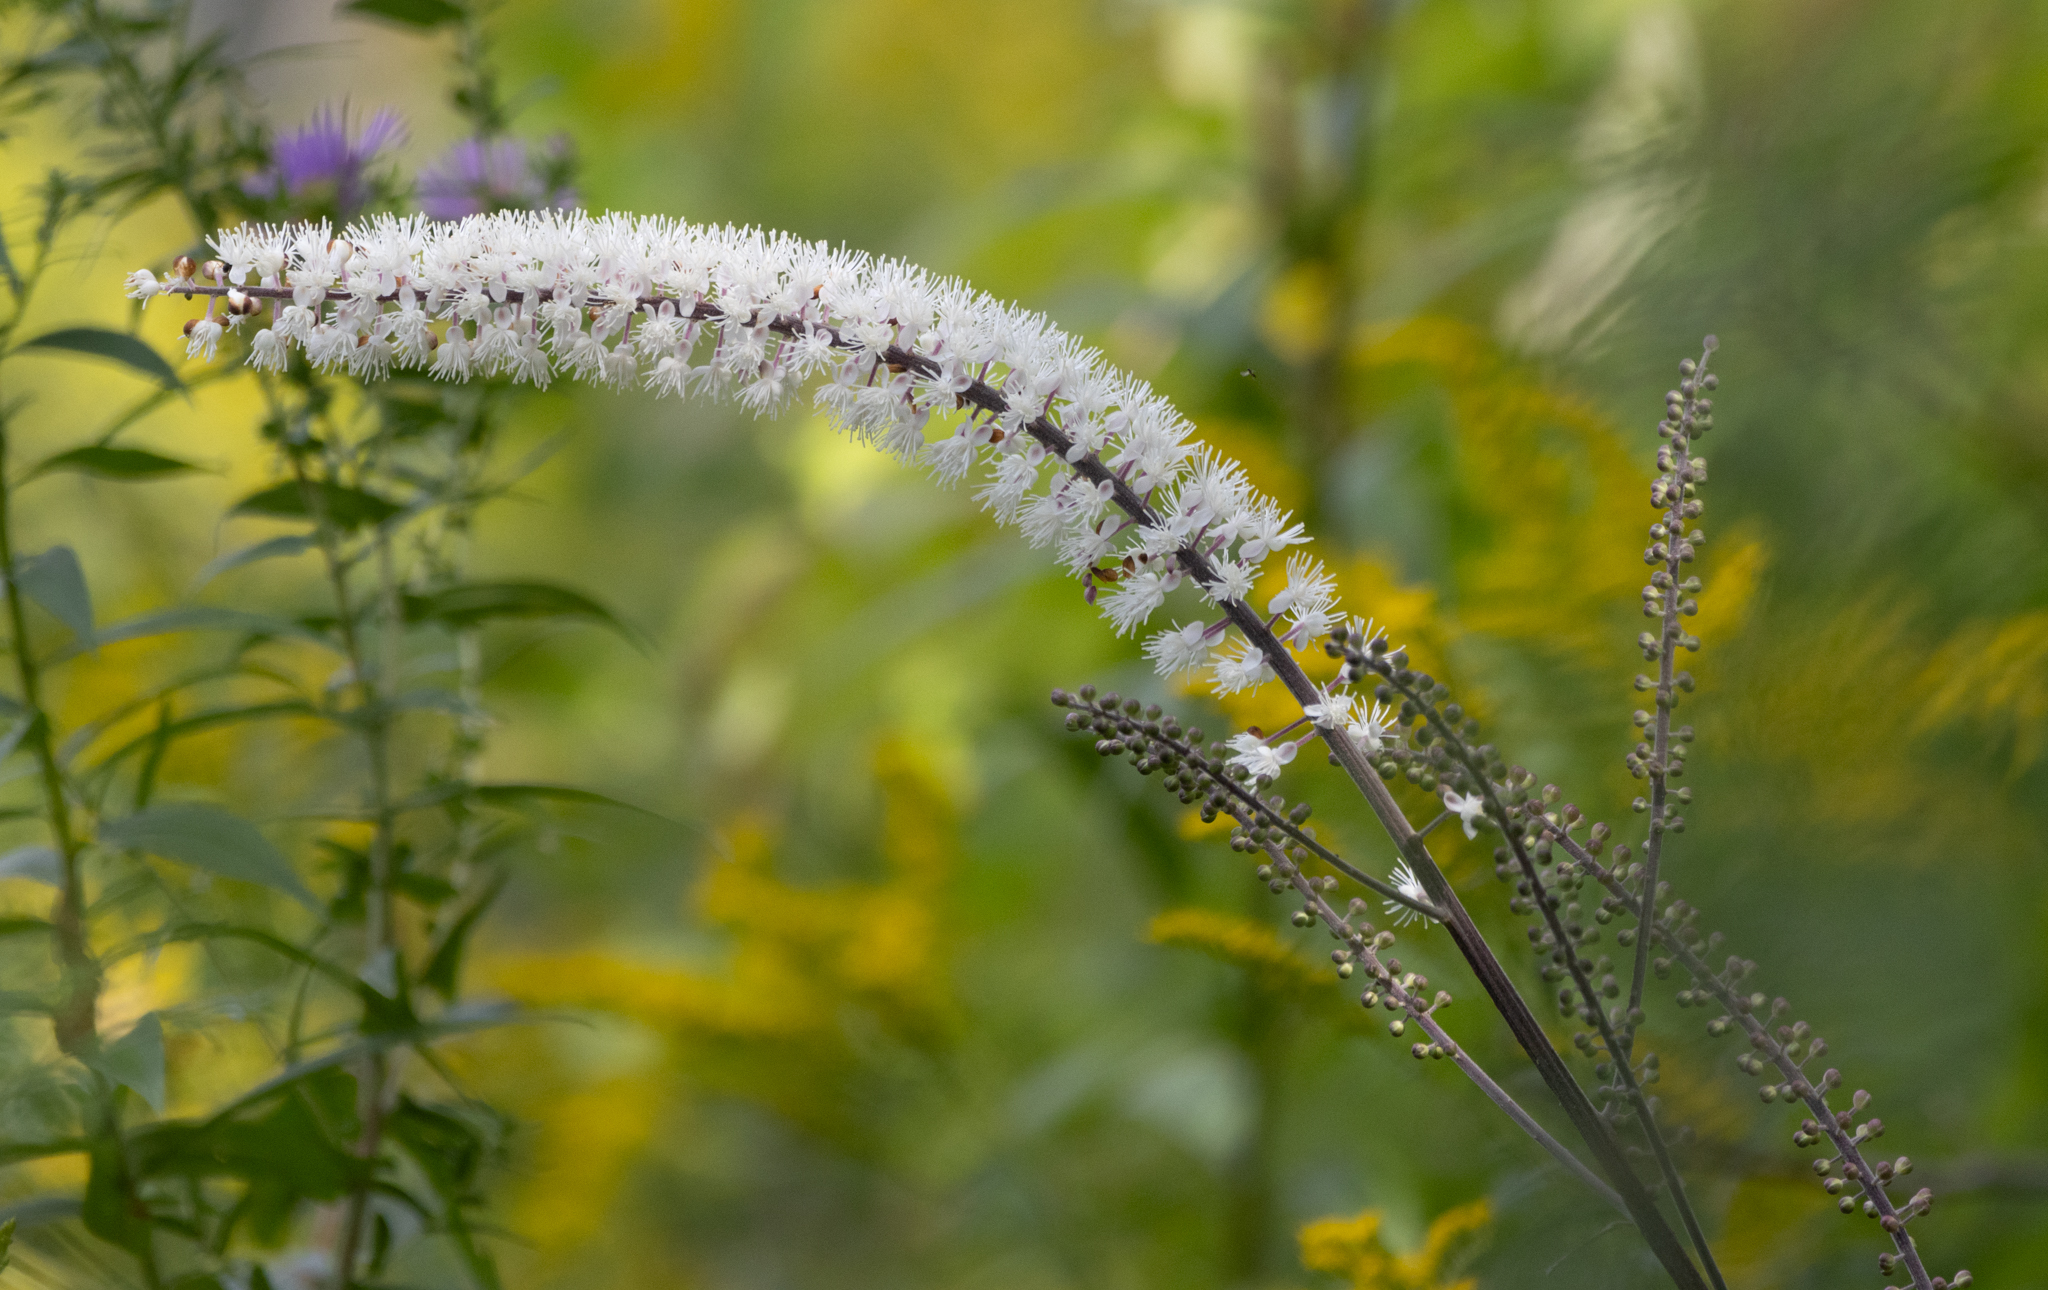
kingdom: Plantae
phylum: Tracheophyta
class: Magnoliopsida
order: Ranunculales
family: Ranunculaceae
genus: Actaea
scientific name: Actaea racemosa
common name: Black cohosh
